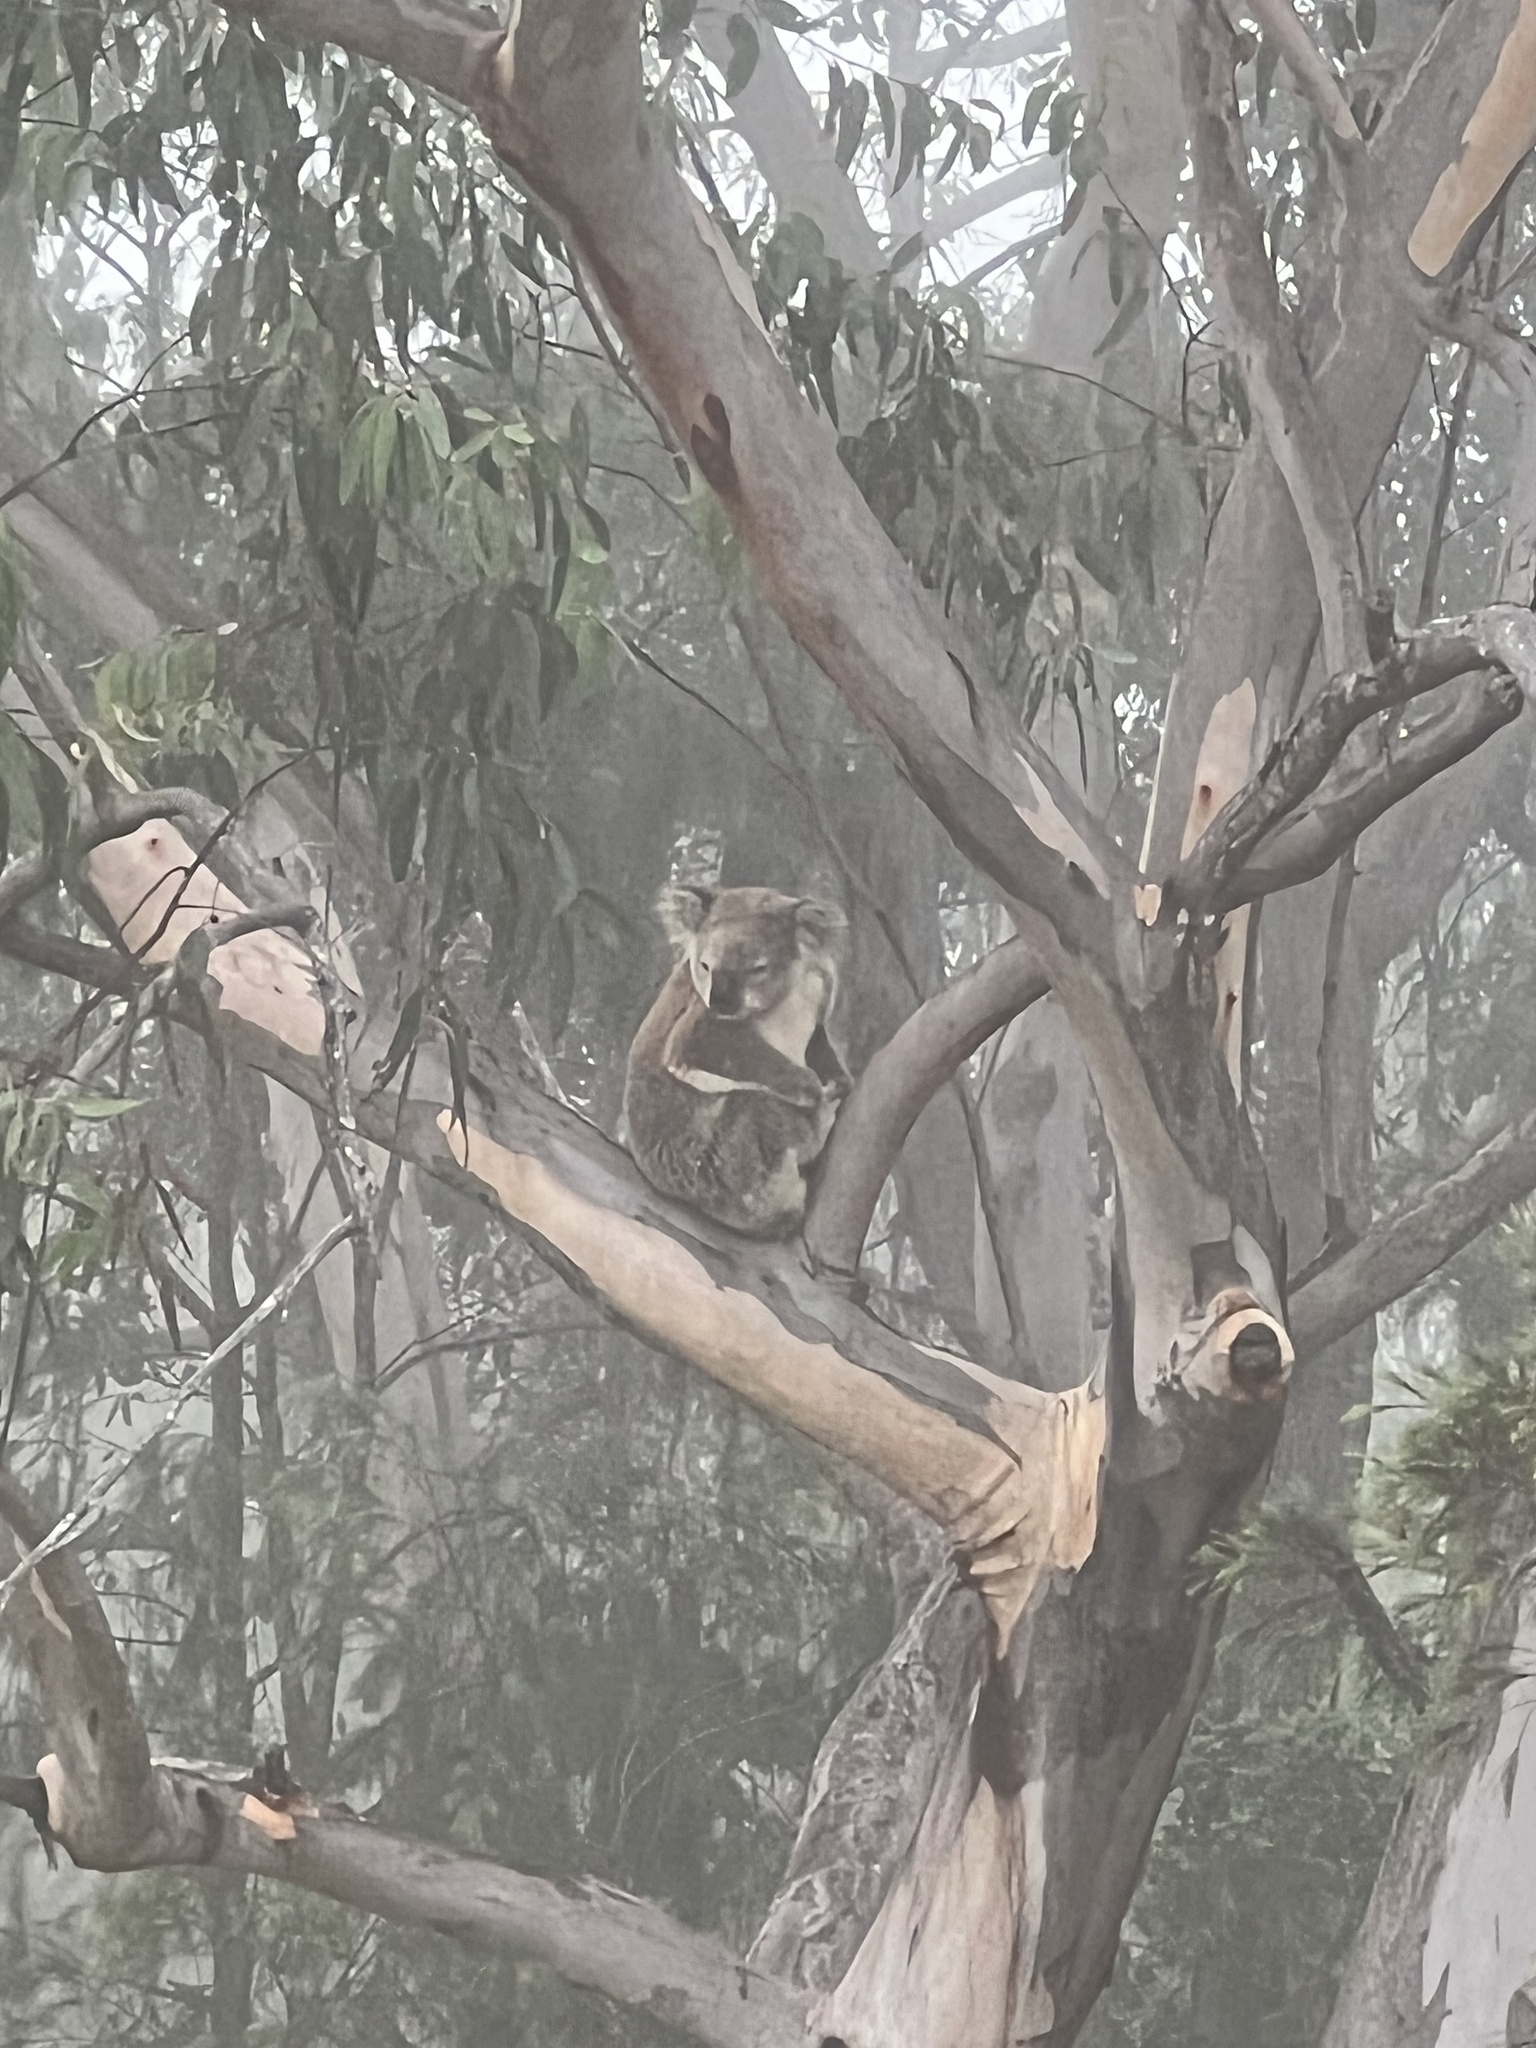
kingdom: Animalia
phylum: Chordata
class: Mammalia
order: Diprotodontia
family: Phascolarctidae
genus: Phascolarctos
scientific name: Phascolarctos cinereus
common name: Koala
